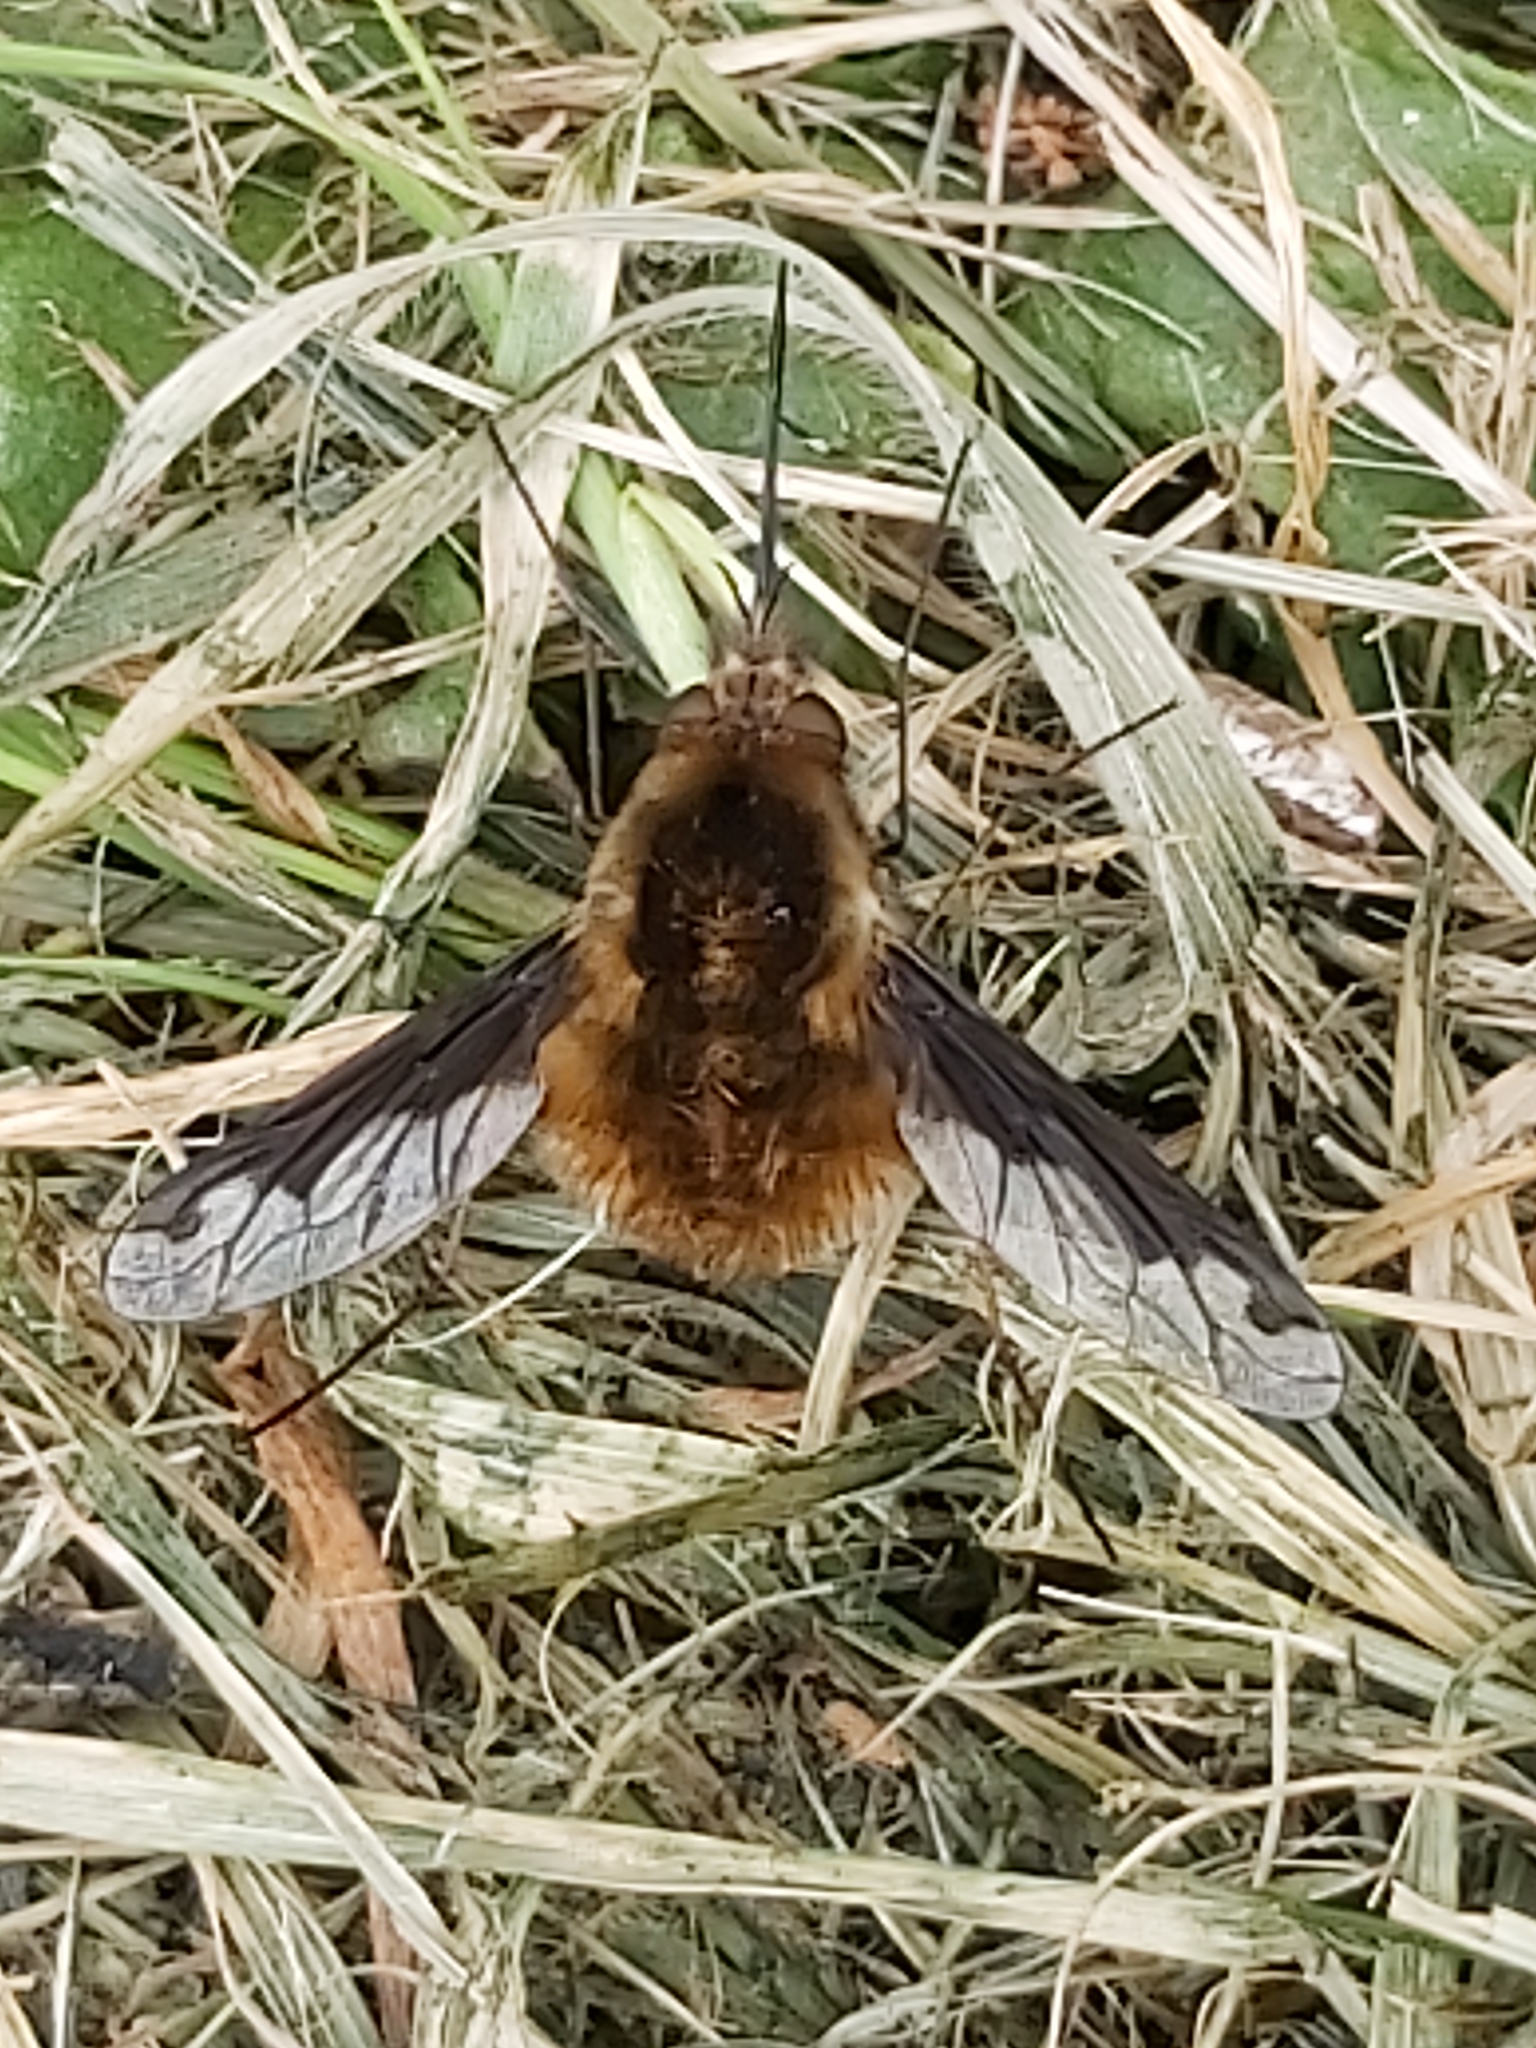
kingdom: Animalia
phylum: Arthropoda
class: Insecta
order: Diptera
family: Bombyliidae
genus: Bombylius
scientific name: Bombylius major
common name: Bee fly
